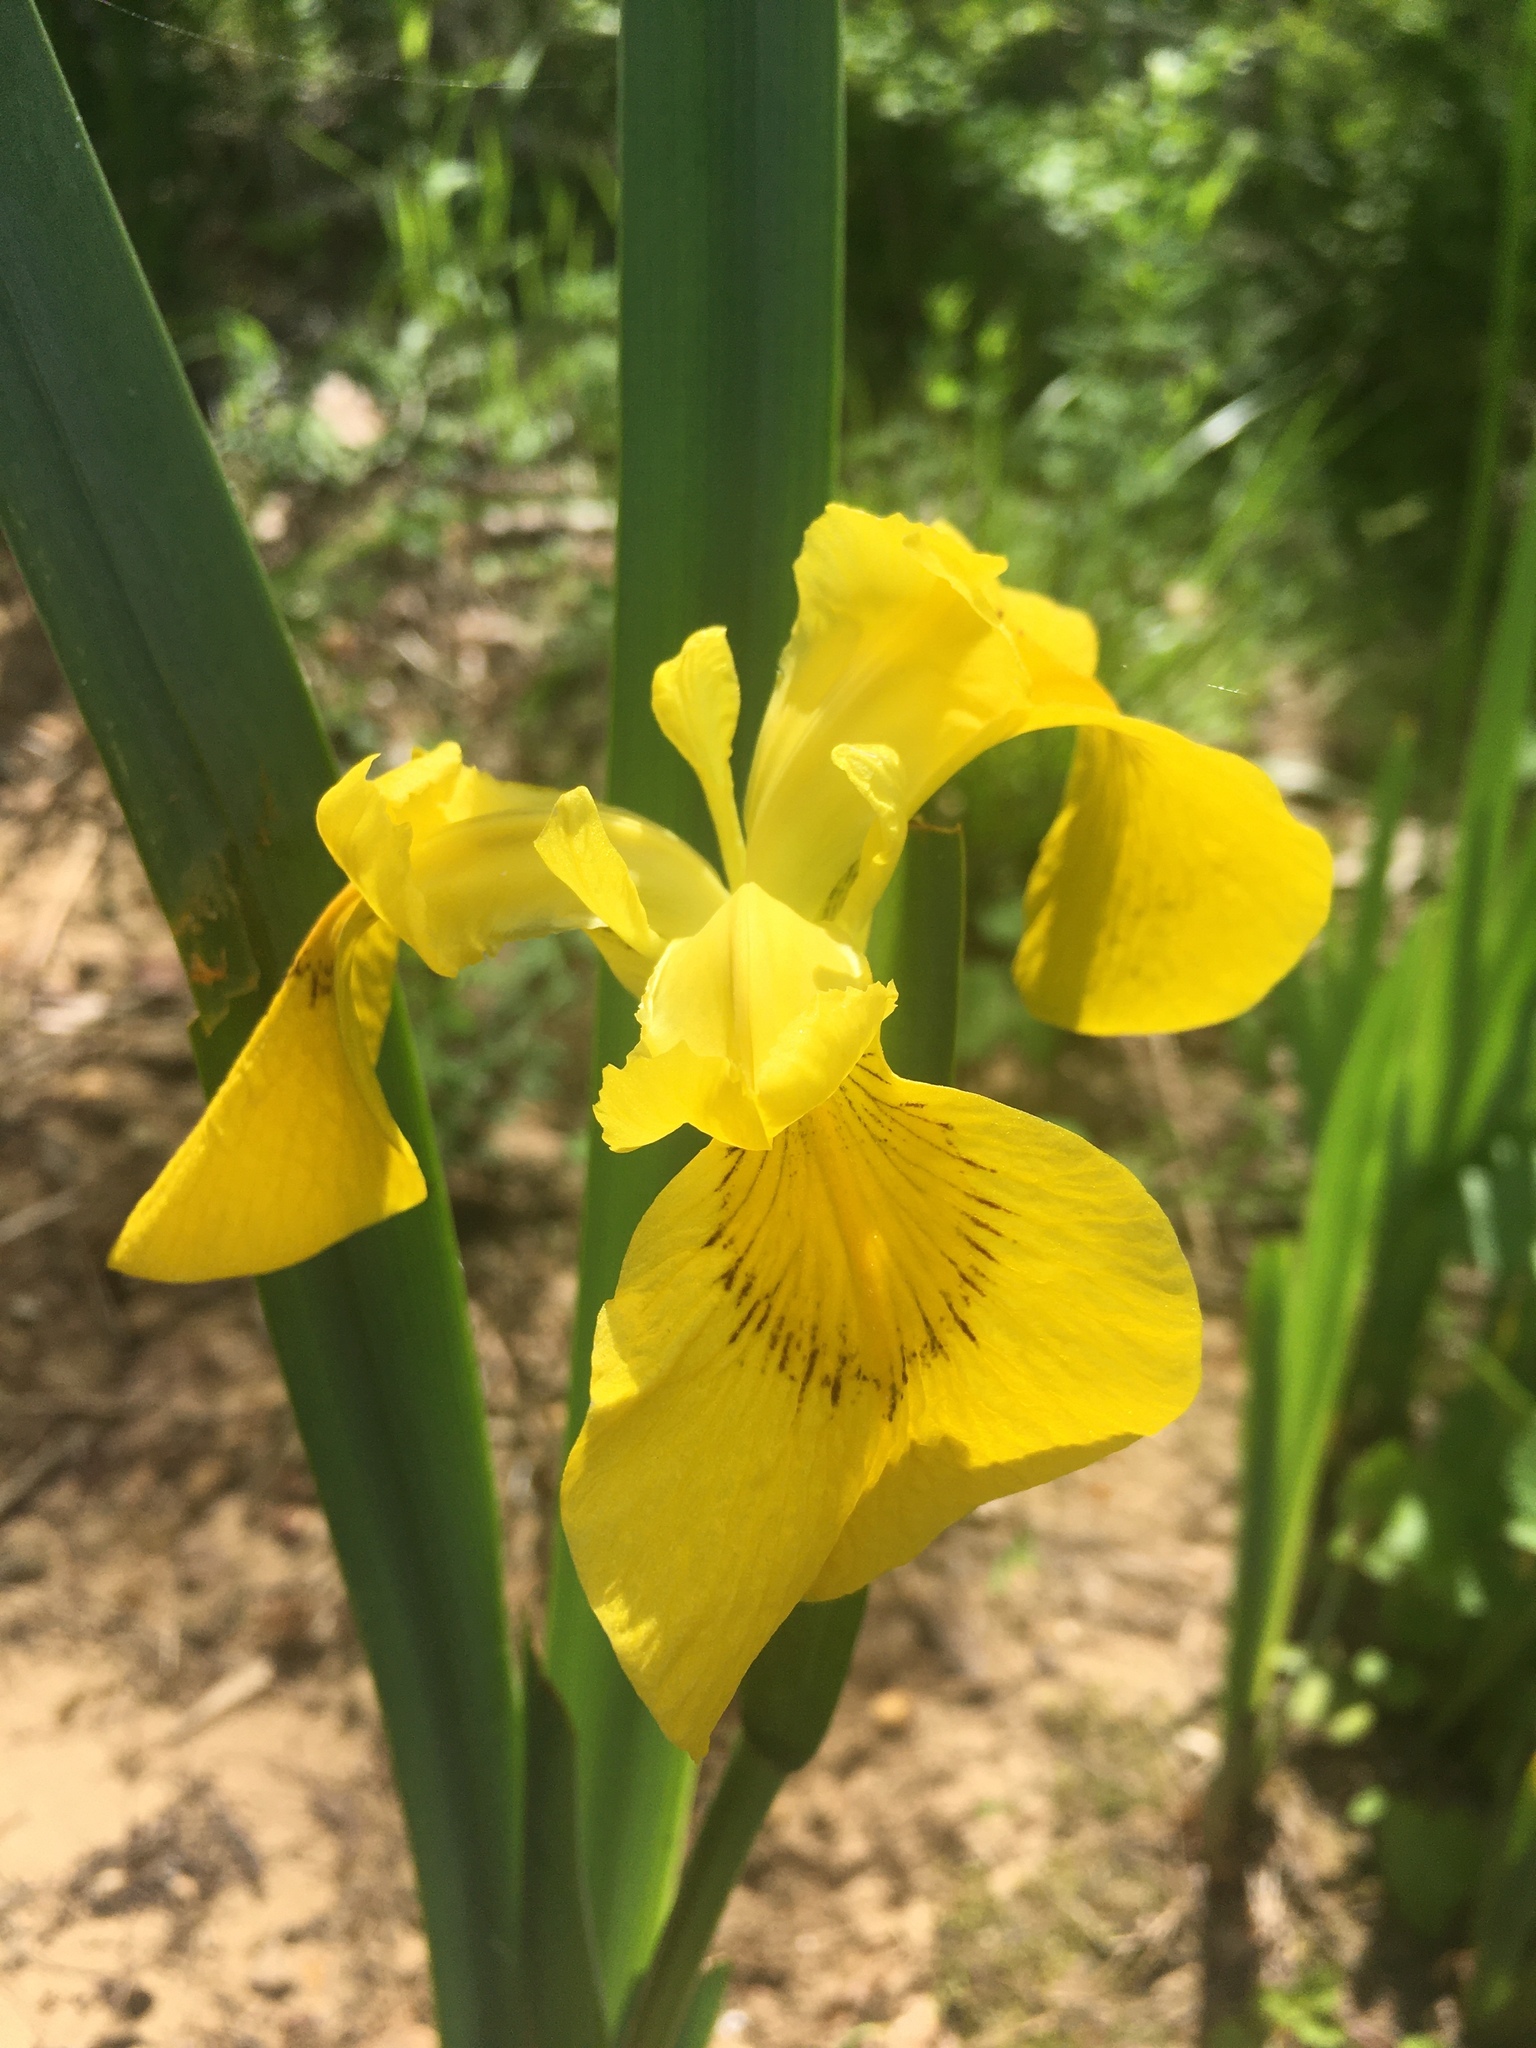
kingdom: Plantae
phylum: Tracheophyta
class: Liliopsida
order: Asparagales
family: Iridaceae
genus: Iris
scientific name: Iris pseudacorus
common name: Yellow flag
